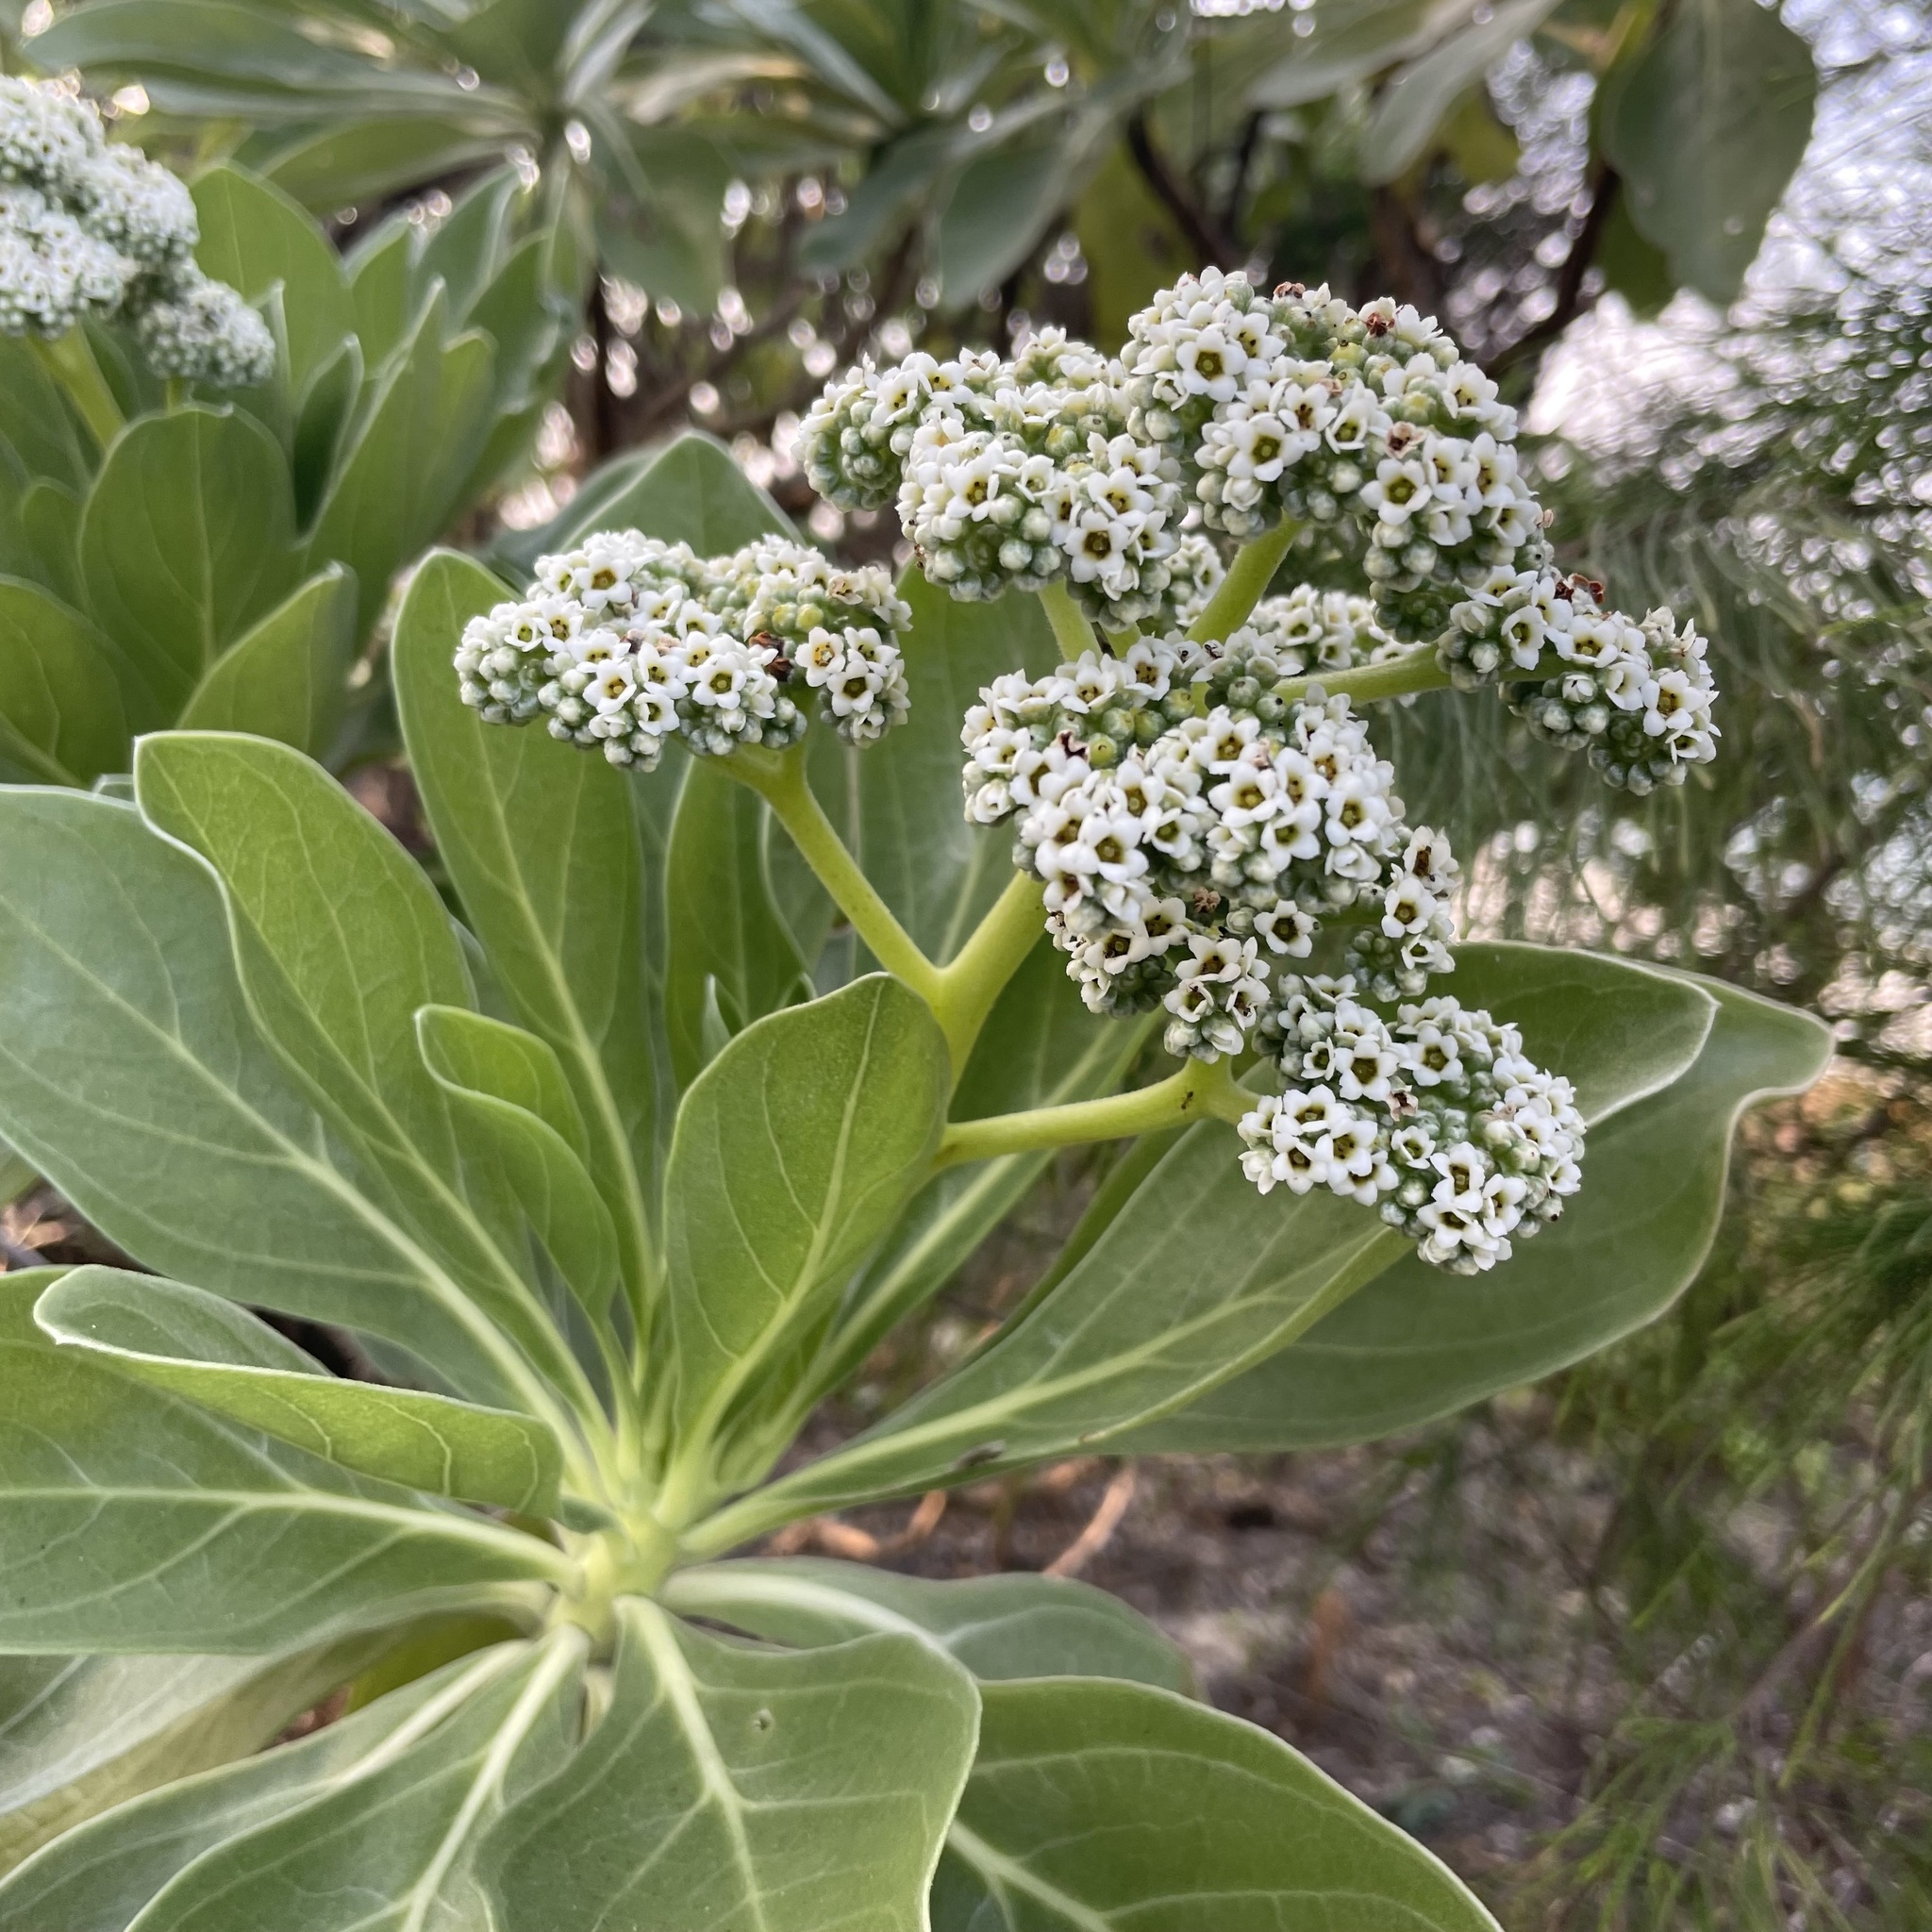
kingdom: Plantae
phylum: Tracheophyta
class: Magnoliopsida
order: Boraginales
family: Heliotropiaceae
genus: Heliotropium
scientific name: Heliotropium velutinum
